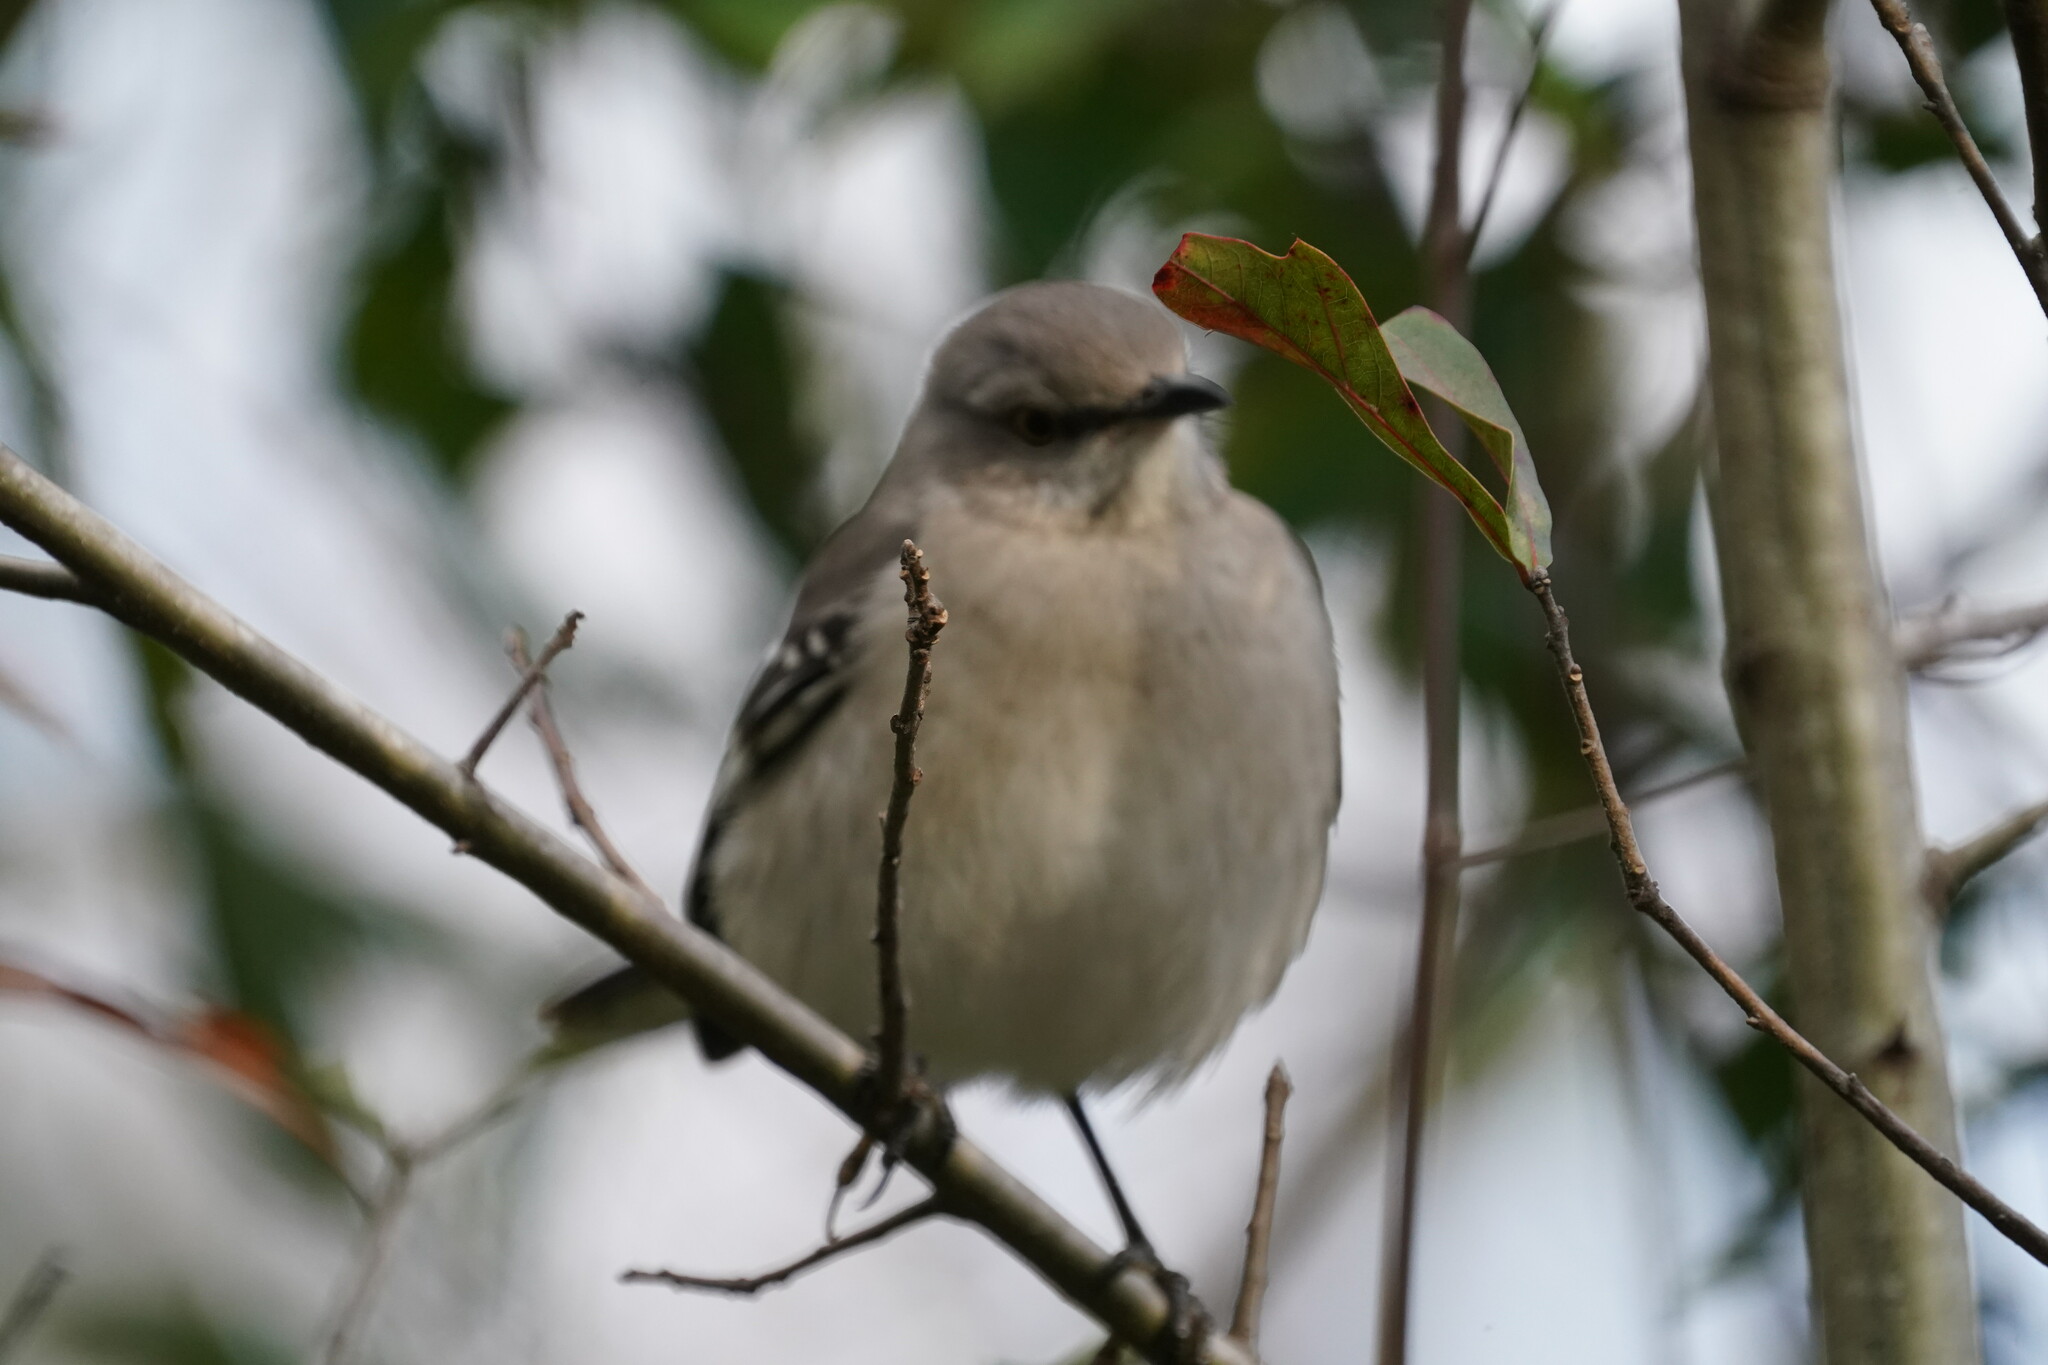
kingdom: Animalia
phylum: Chordata
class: Aves
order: Passeriformes
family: Mimidae
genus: Mimus
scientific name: Mimus polyglottos
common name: Northern mockingbird
